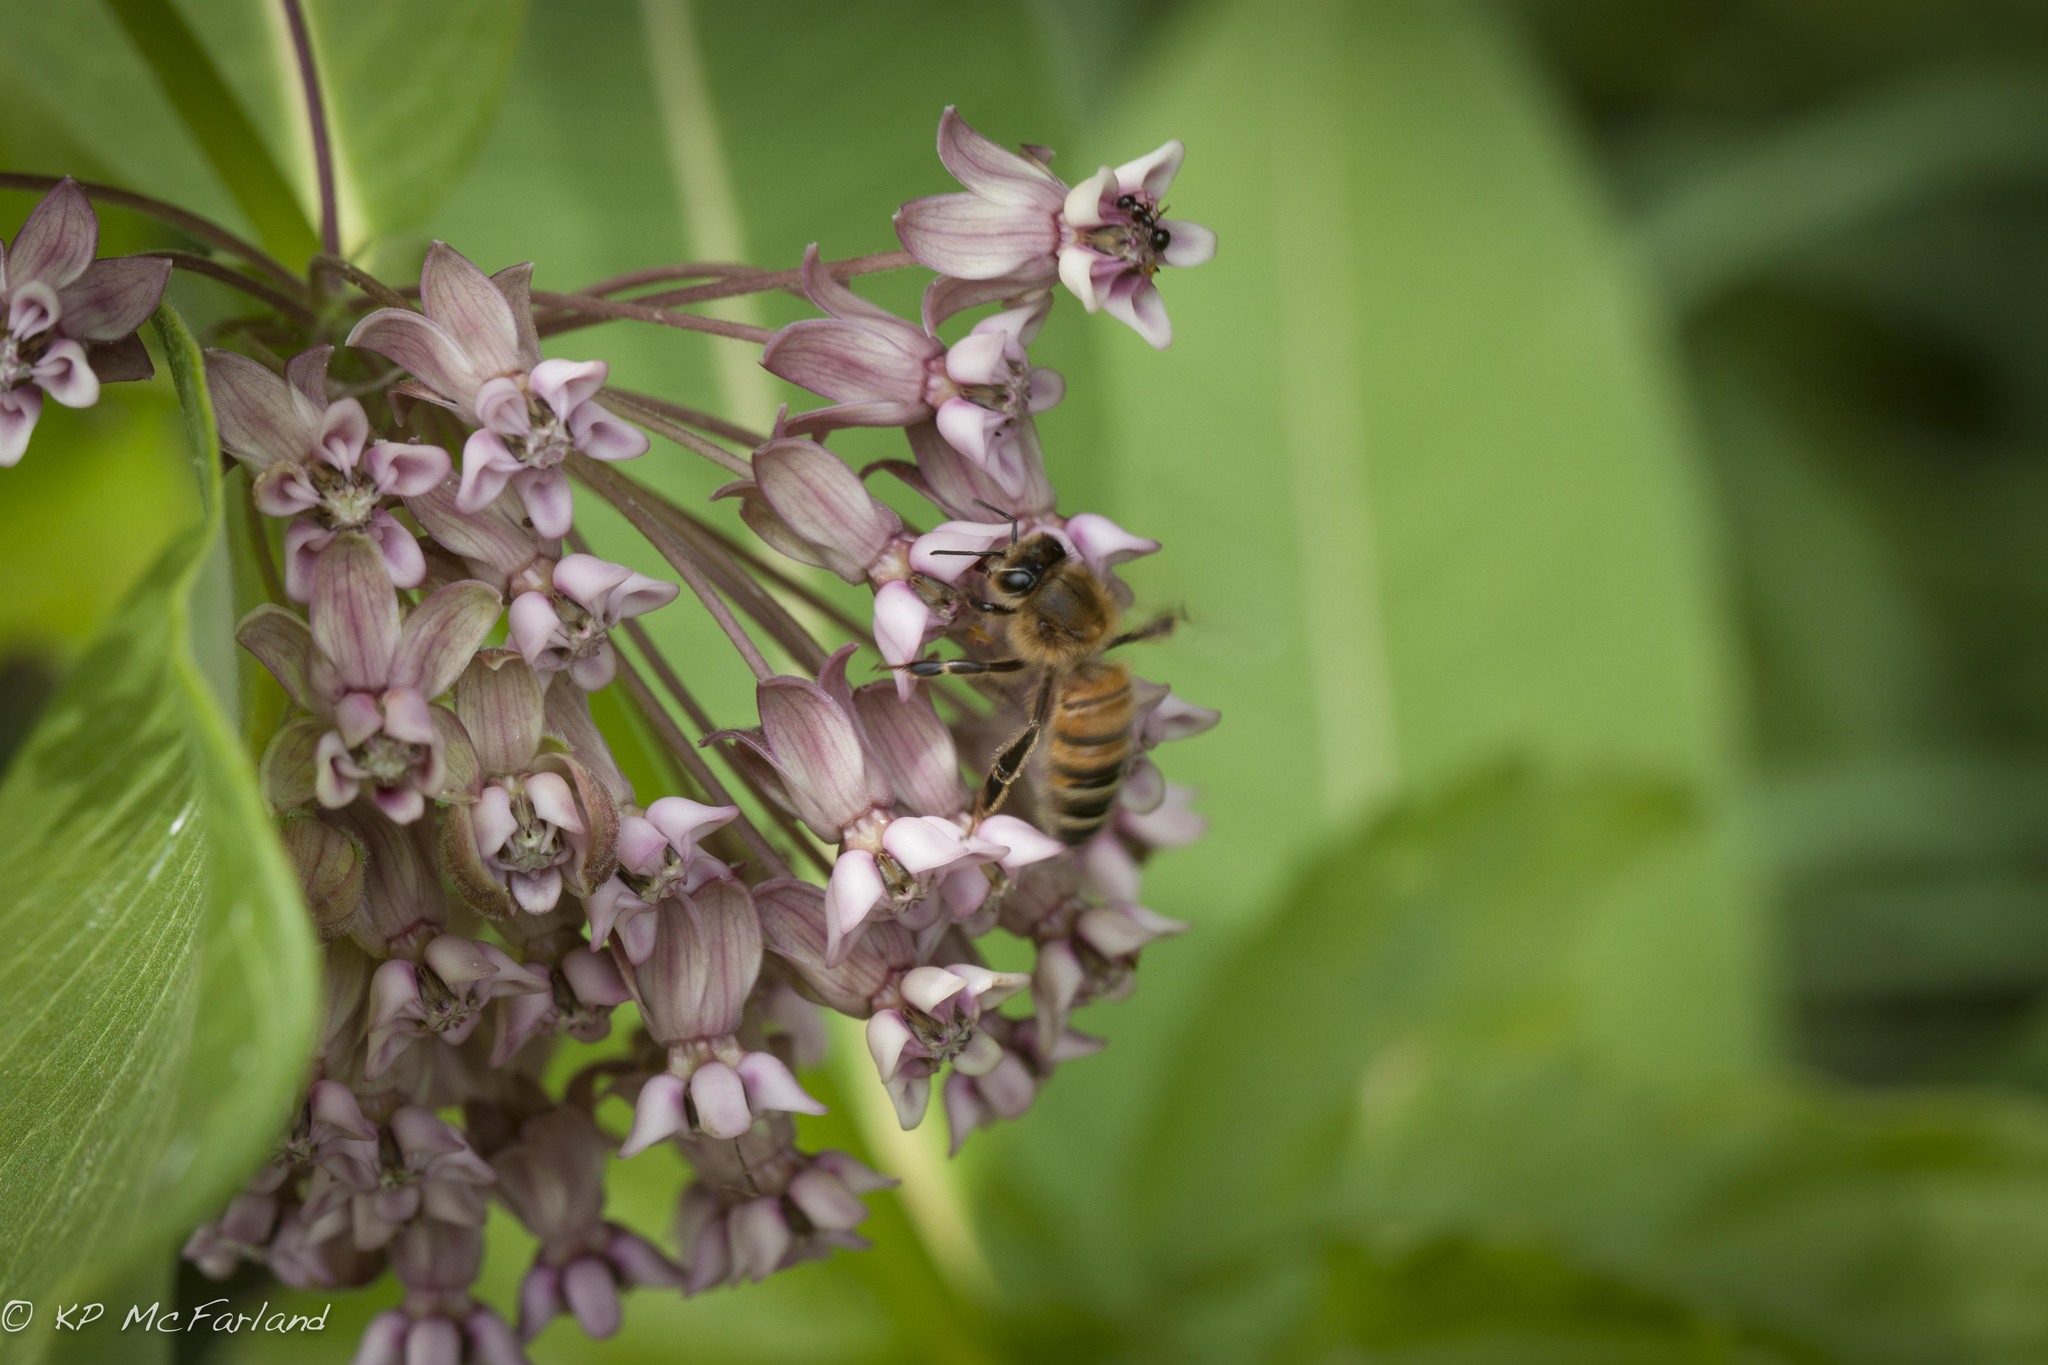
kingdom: Animalia
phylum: Arthropoda
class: Insecta
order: Hymenoptera
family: Apidae
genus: Apis
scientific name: Apis mellifera
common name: Honey bee
